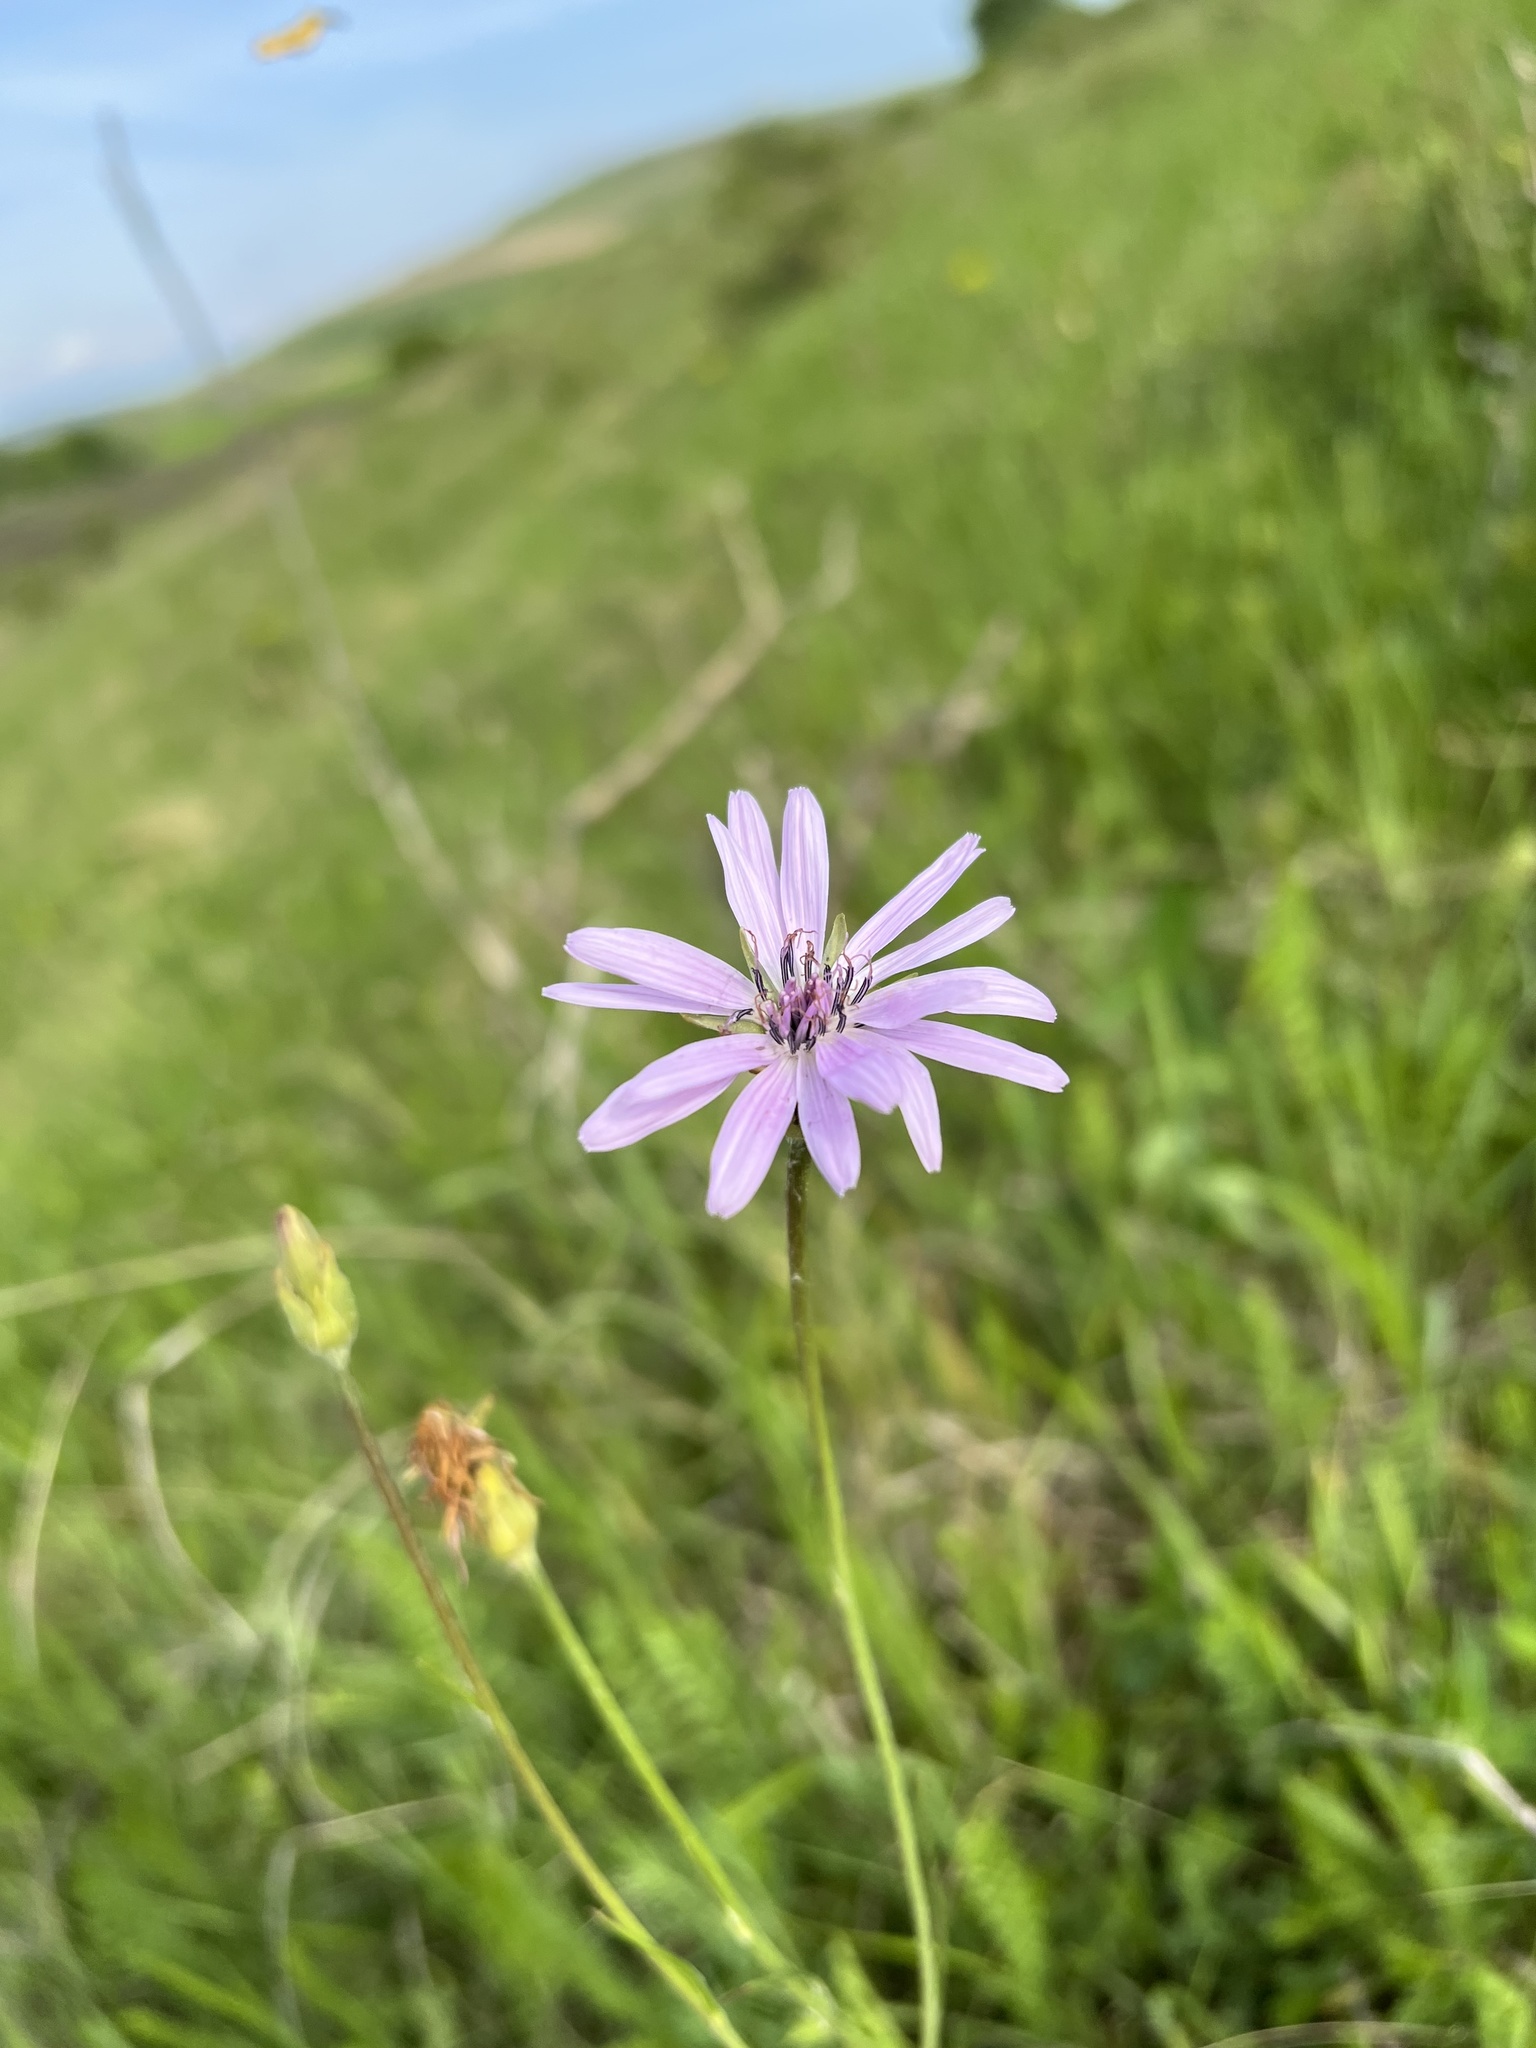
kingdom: Plantae
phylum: Tracheophyta
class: Magnoliopsida
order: Asterales
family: Asteraceae
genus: Scorzonera
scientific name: Scorzonera rosea
